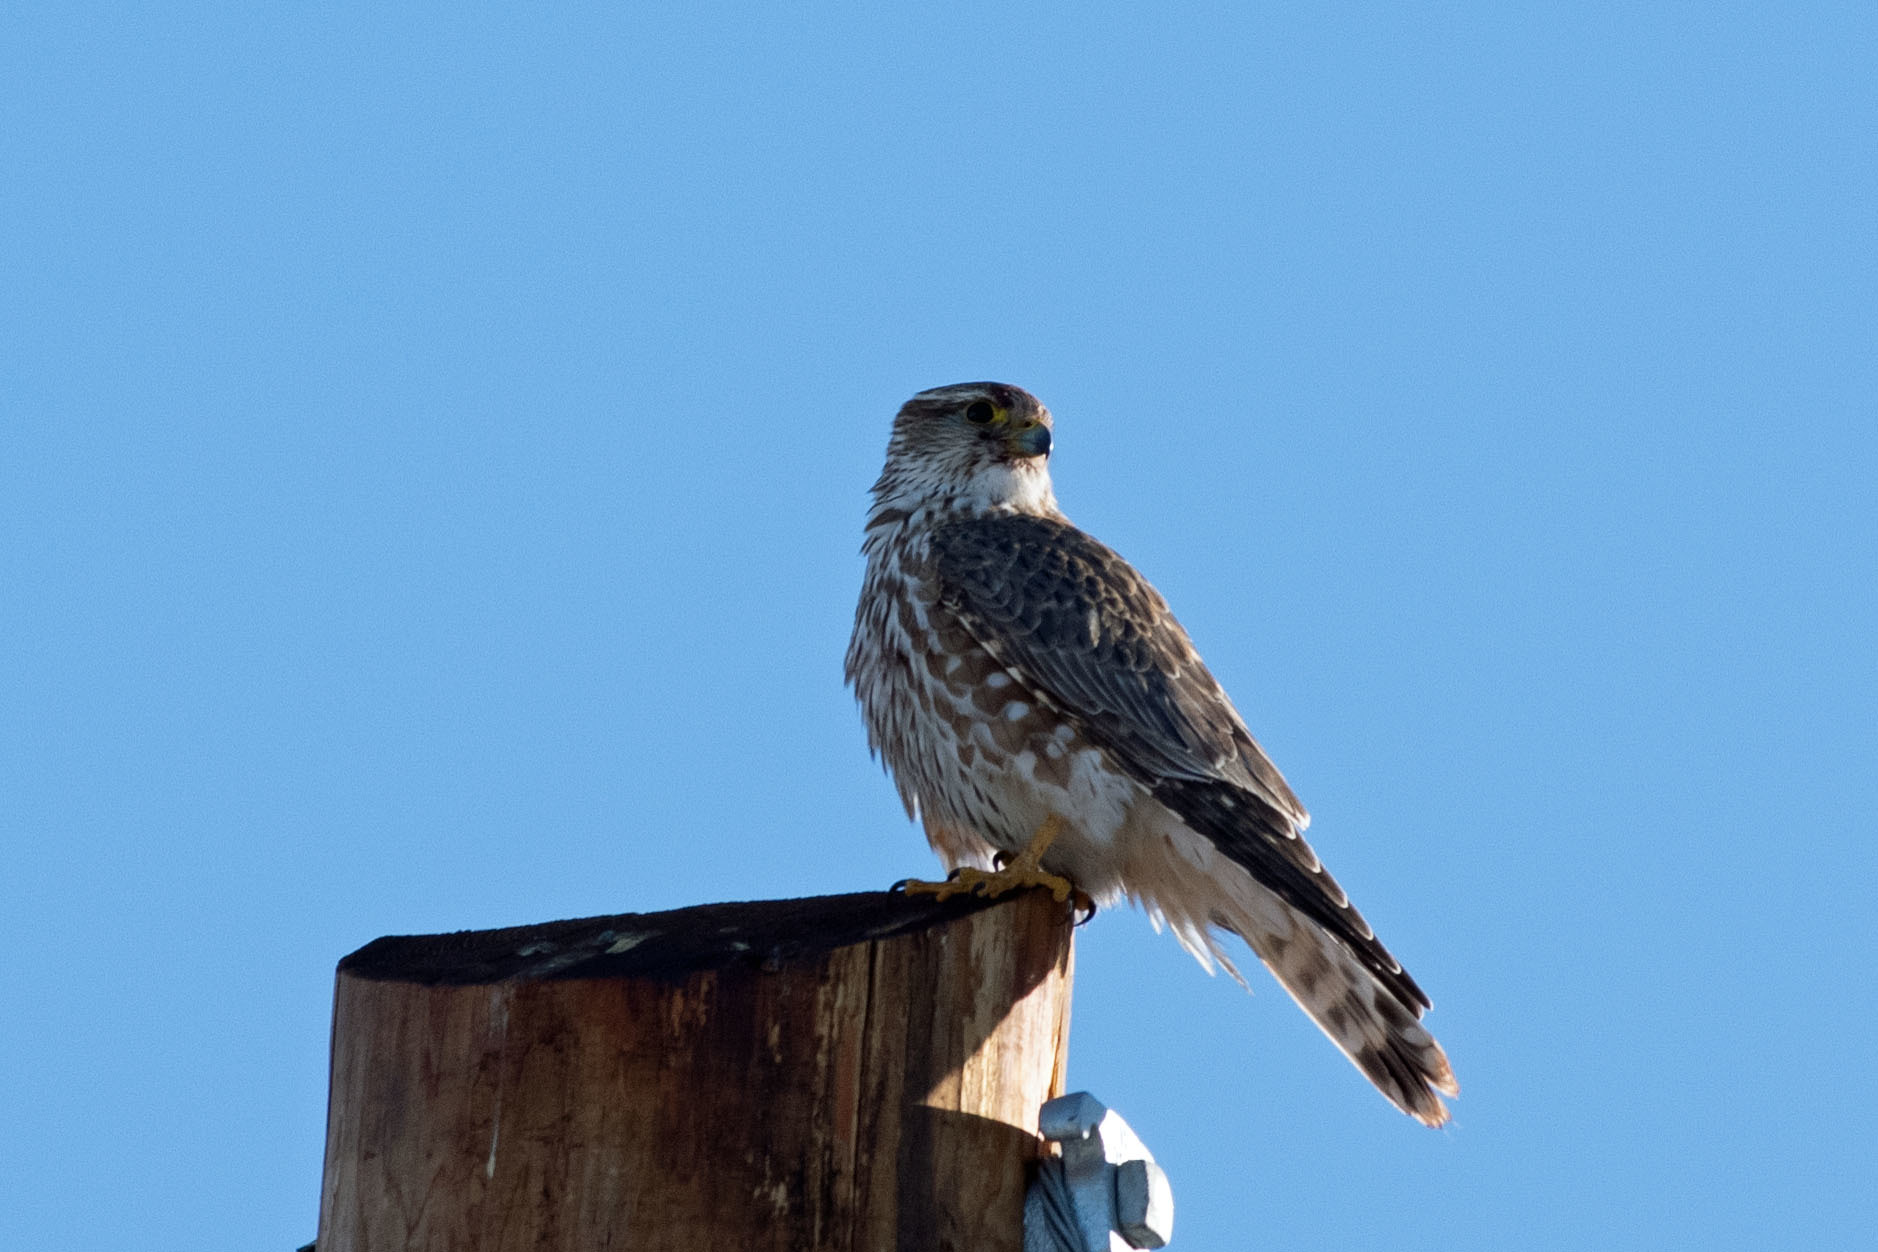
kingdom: Animalia
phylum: Chordata
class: Aves
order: Falconiformes
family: Falconidae
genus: Falco
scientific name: Falco columbarius
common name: Merlin
